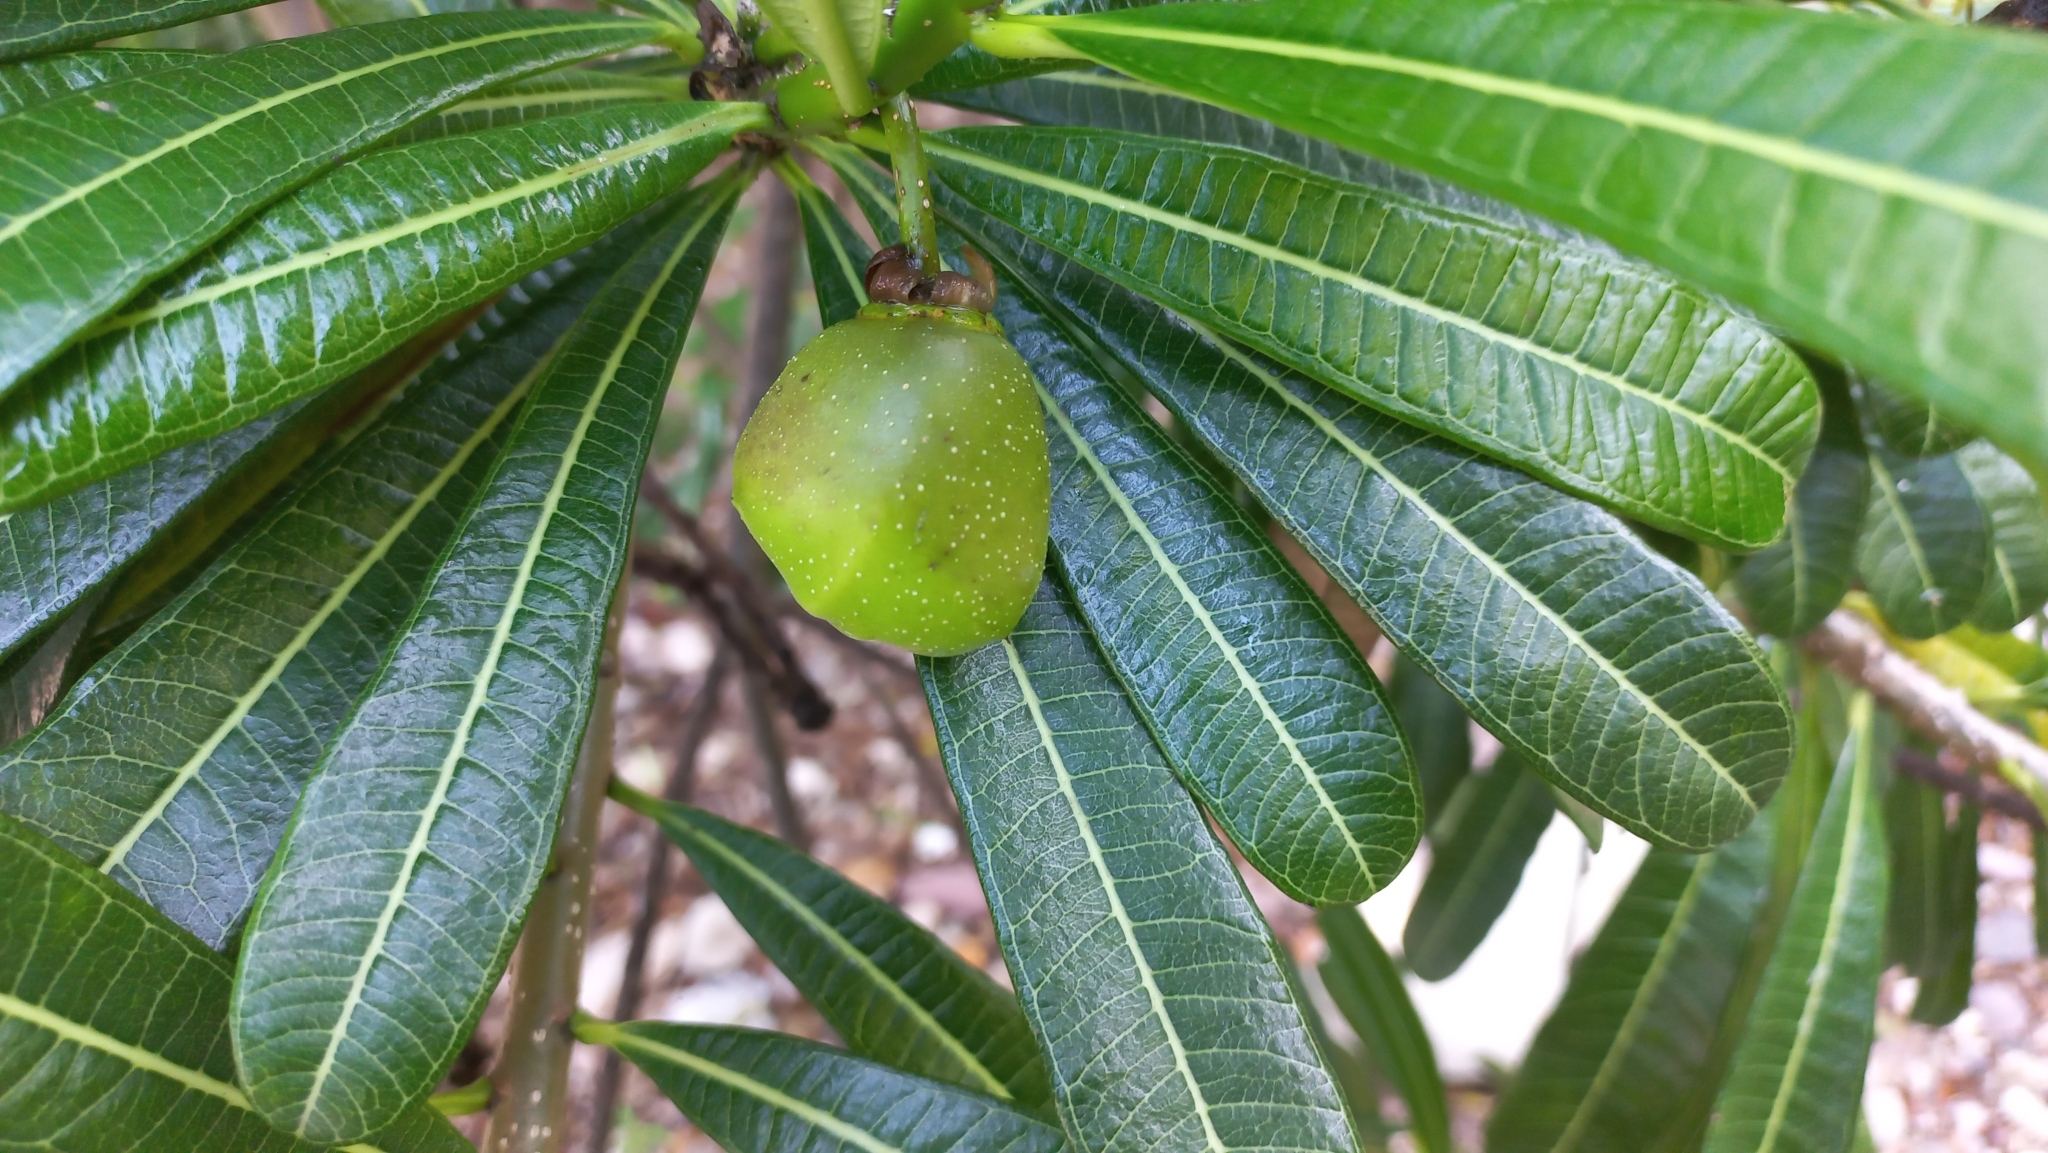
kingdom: Plantae
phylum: Tracheophyta
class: Magnoliopsida
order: Gentianales
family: Apocynaceae
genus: Cascabela
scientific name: Cascabela ovata
